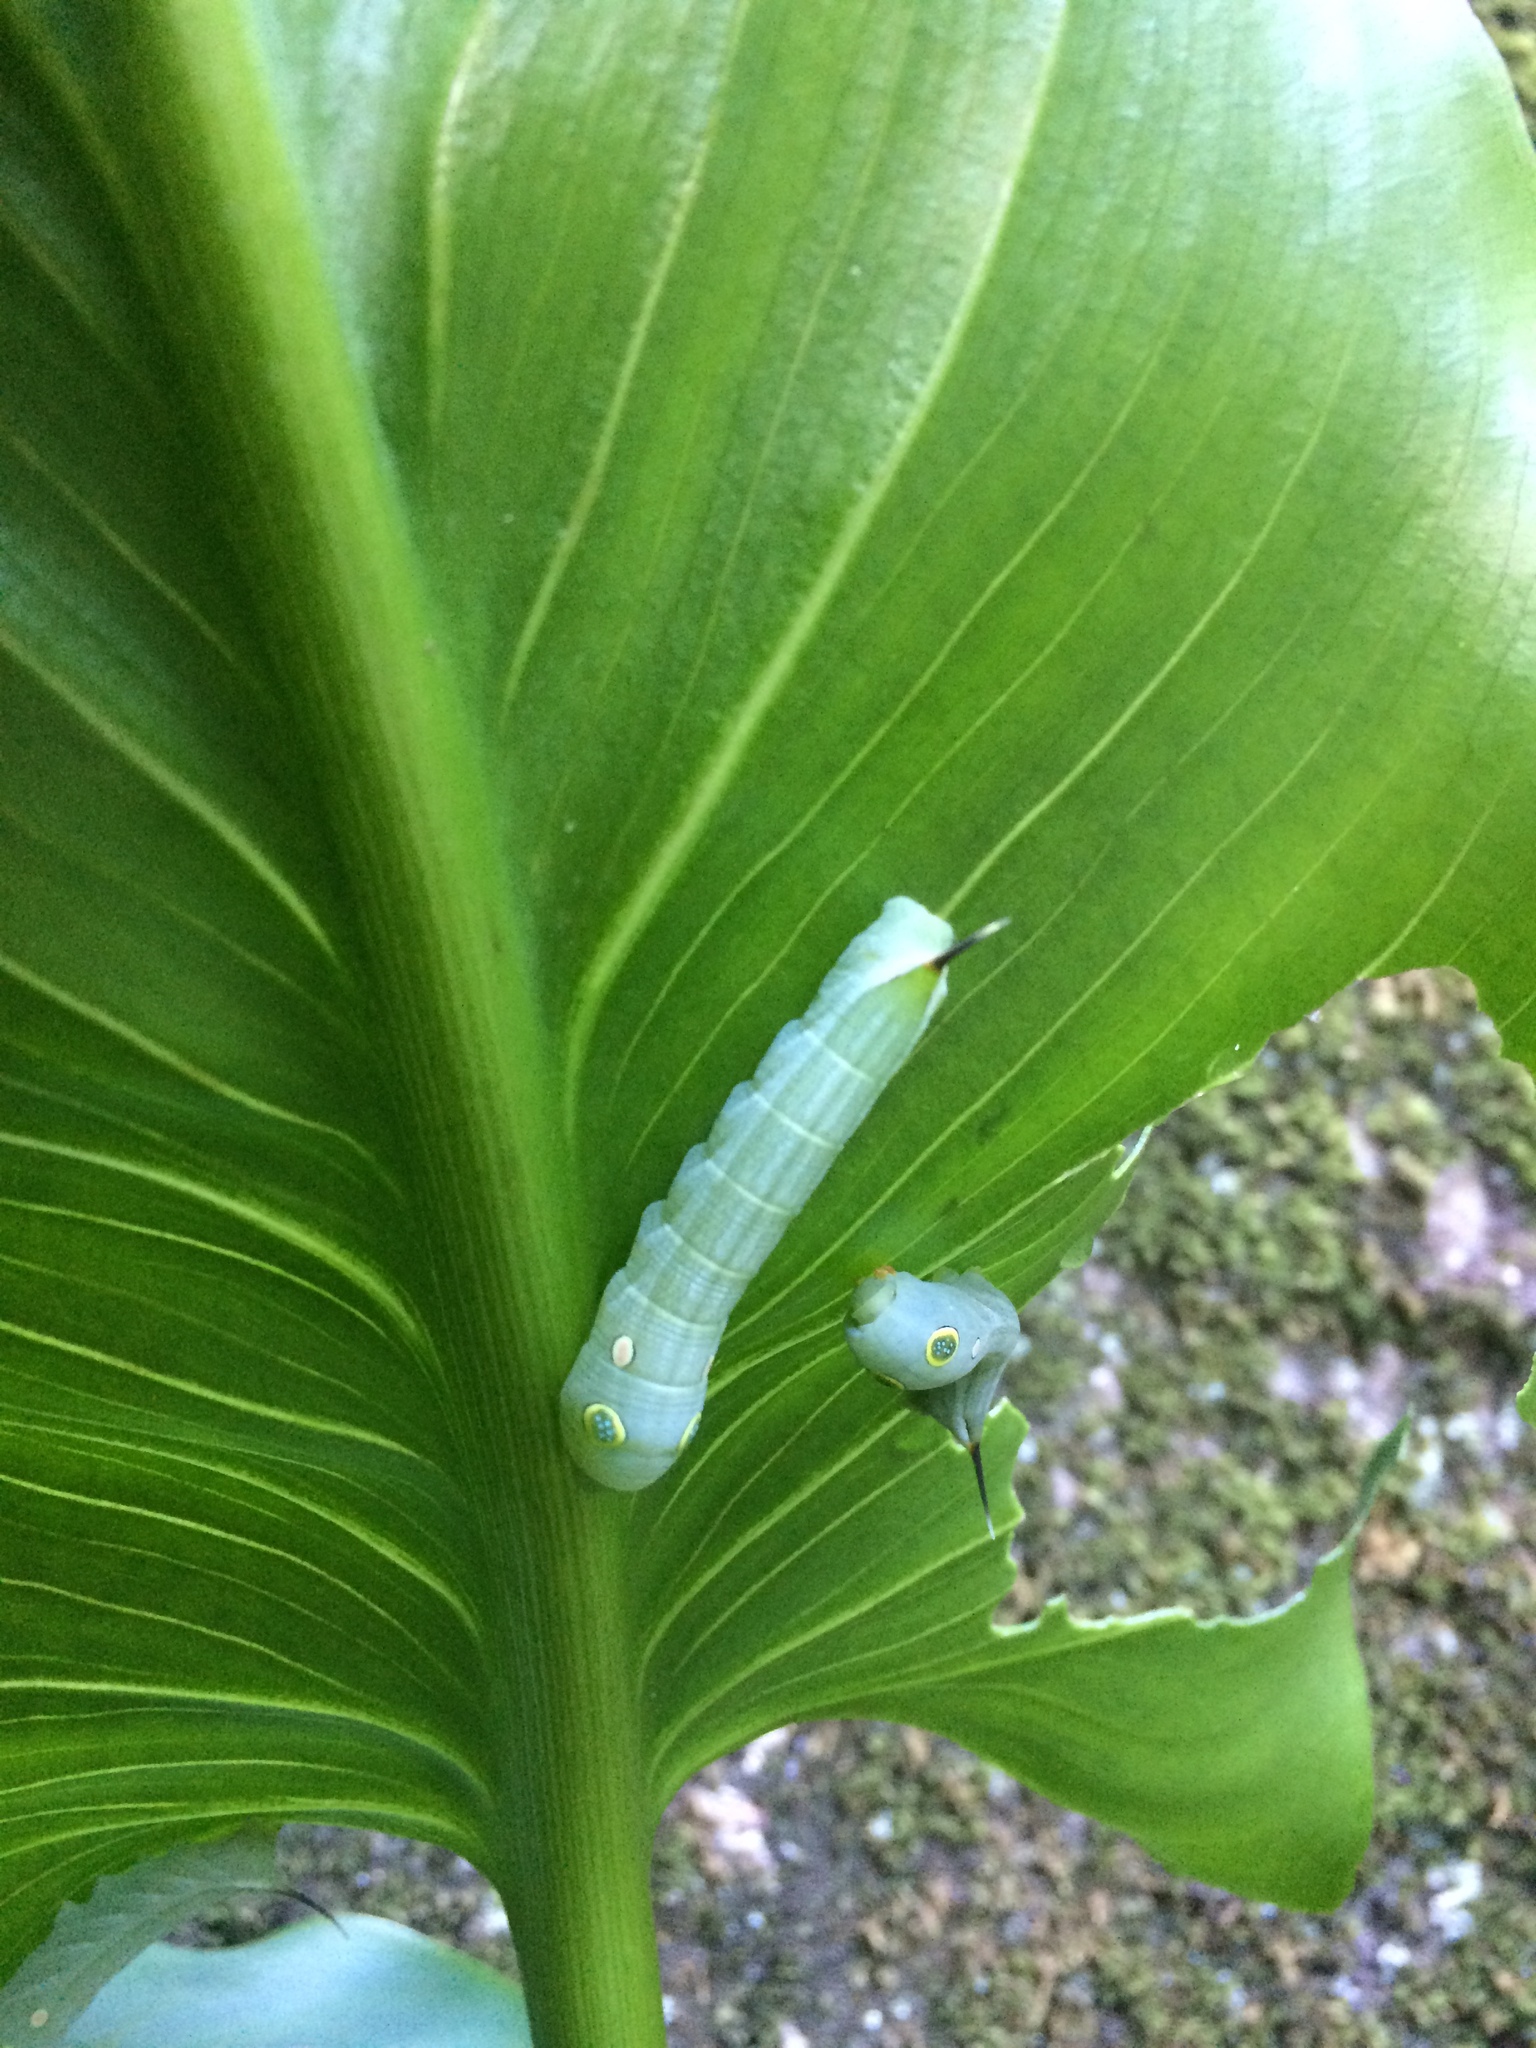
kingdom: Animalia
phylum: Arthropoda
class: Insecta
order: Lepidoptera
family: Sphingidae
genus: Hippotion
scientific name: Hippotion eson
